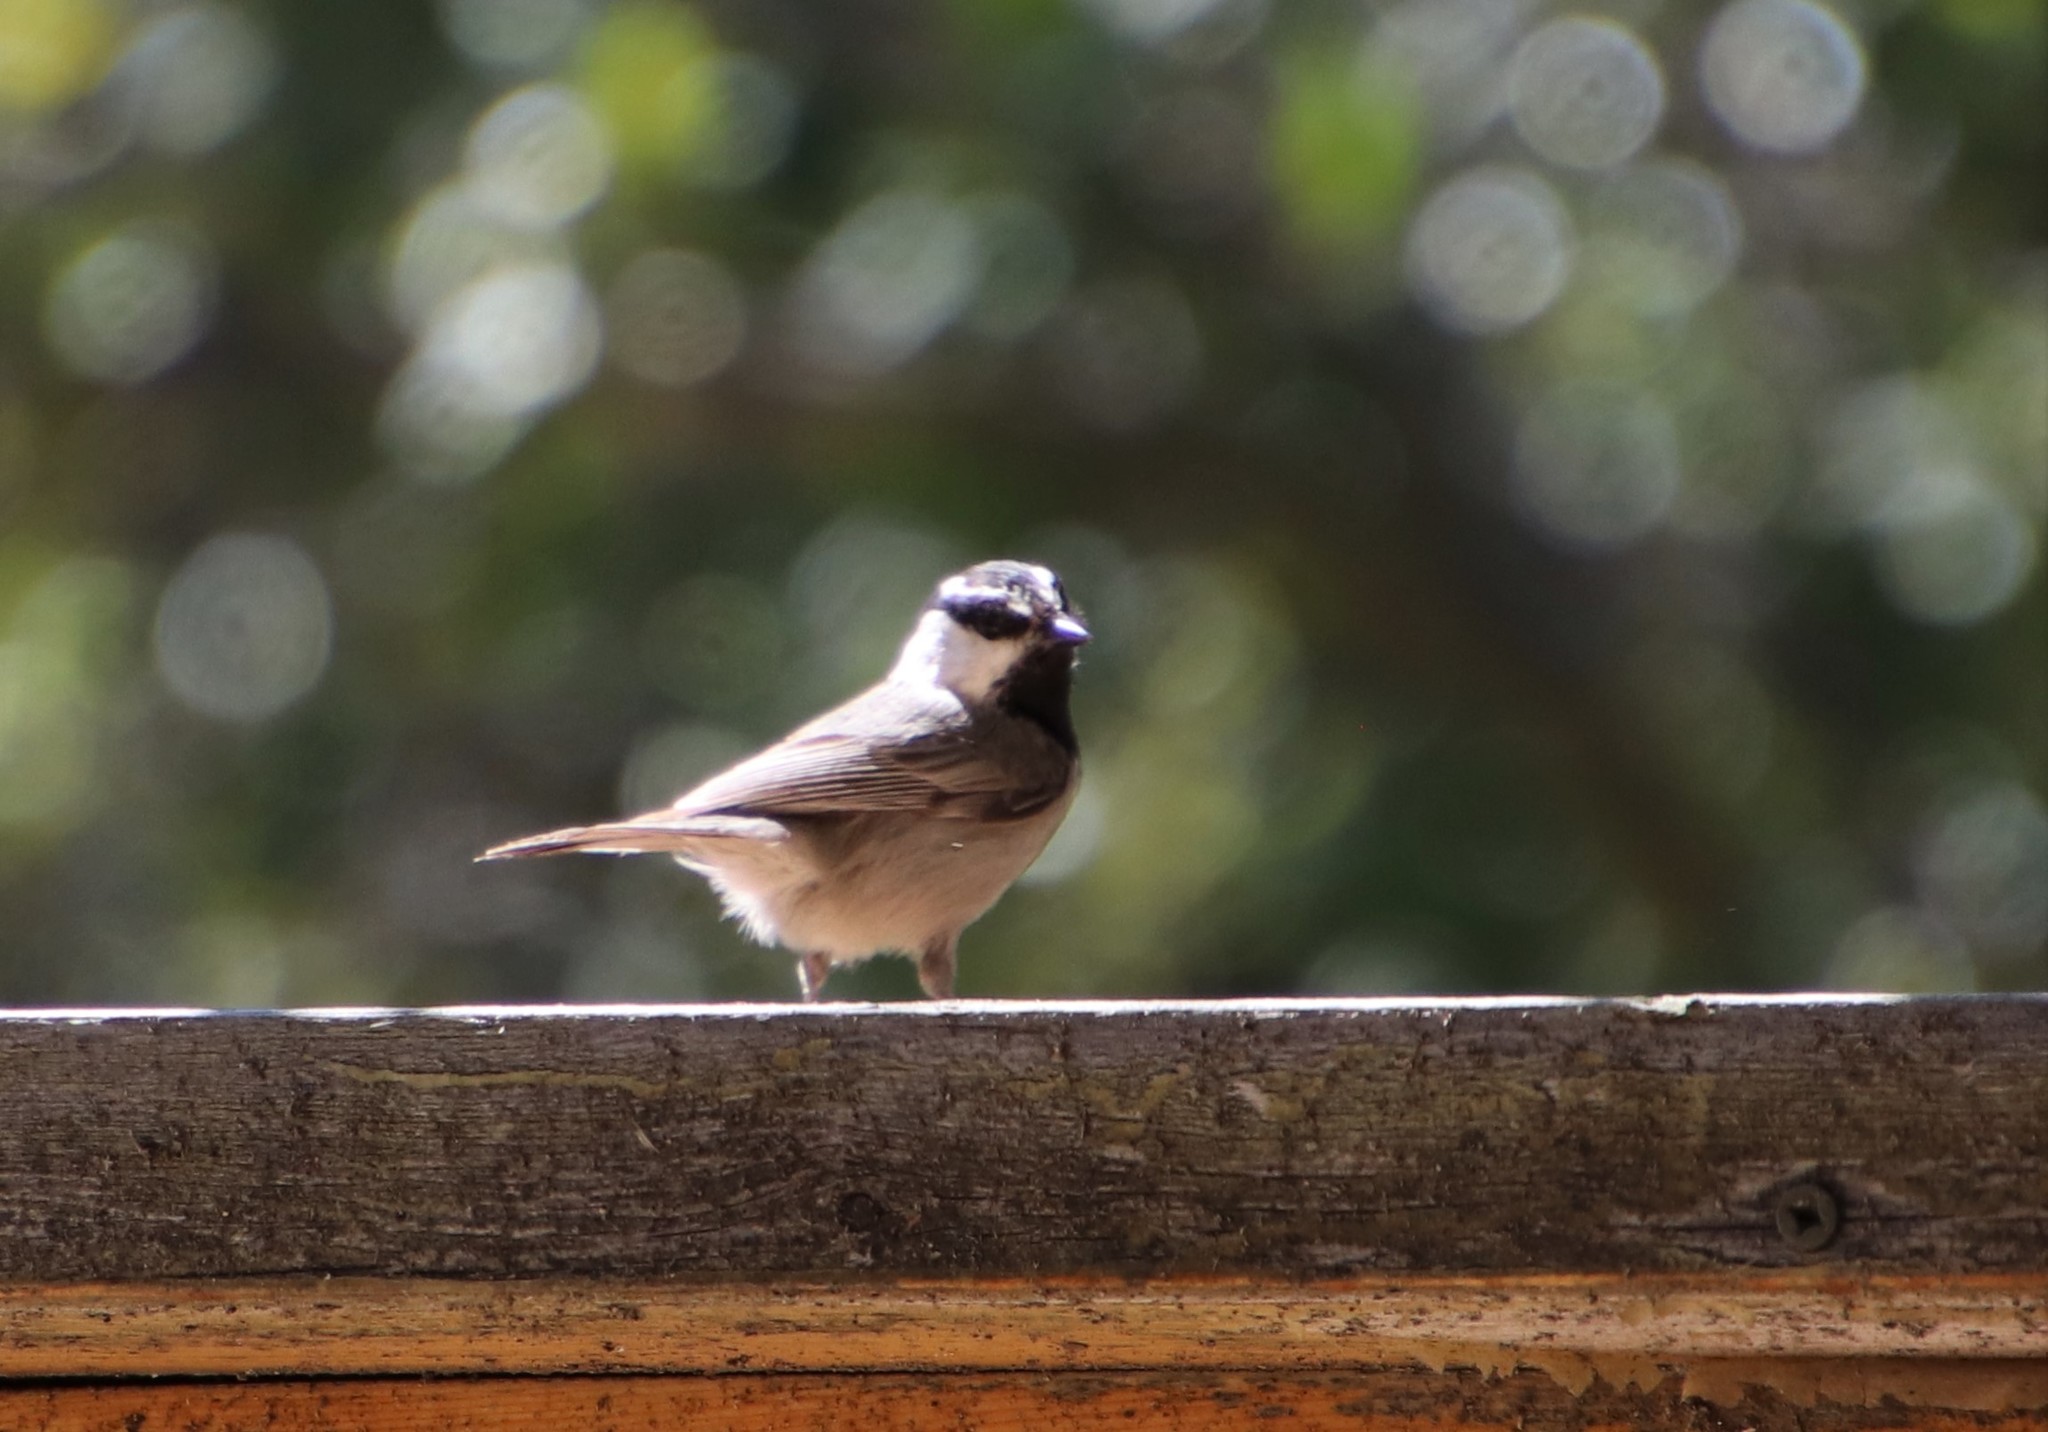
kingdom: Animalia
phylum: Chordata
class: Aves
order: Passeriformes
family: Paridae
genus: Poecile
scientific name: Poecile gambeli
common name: Mountain chickadee
